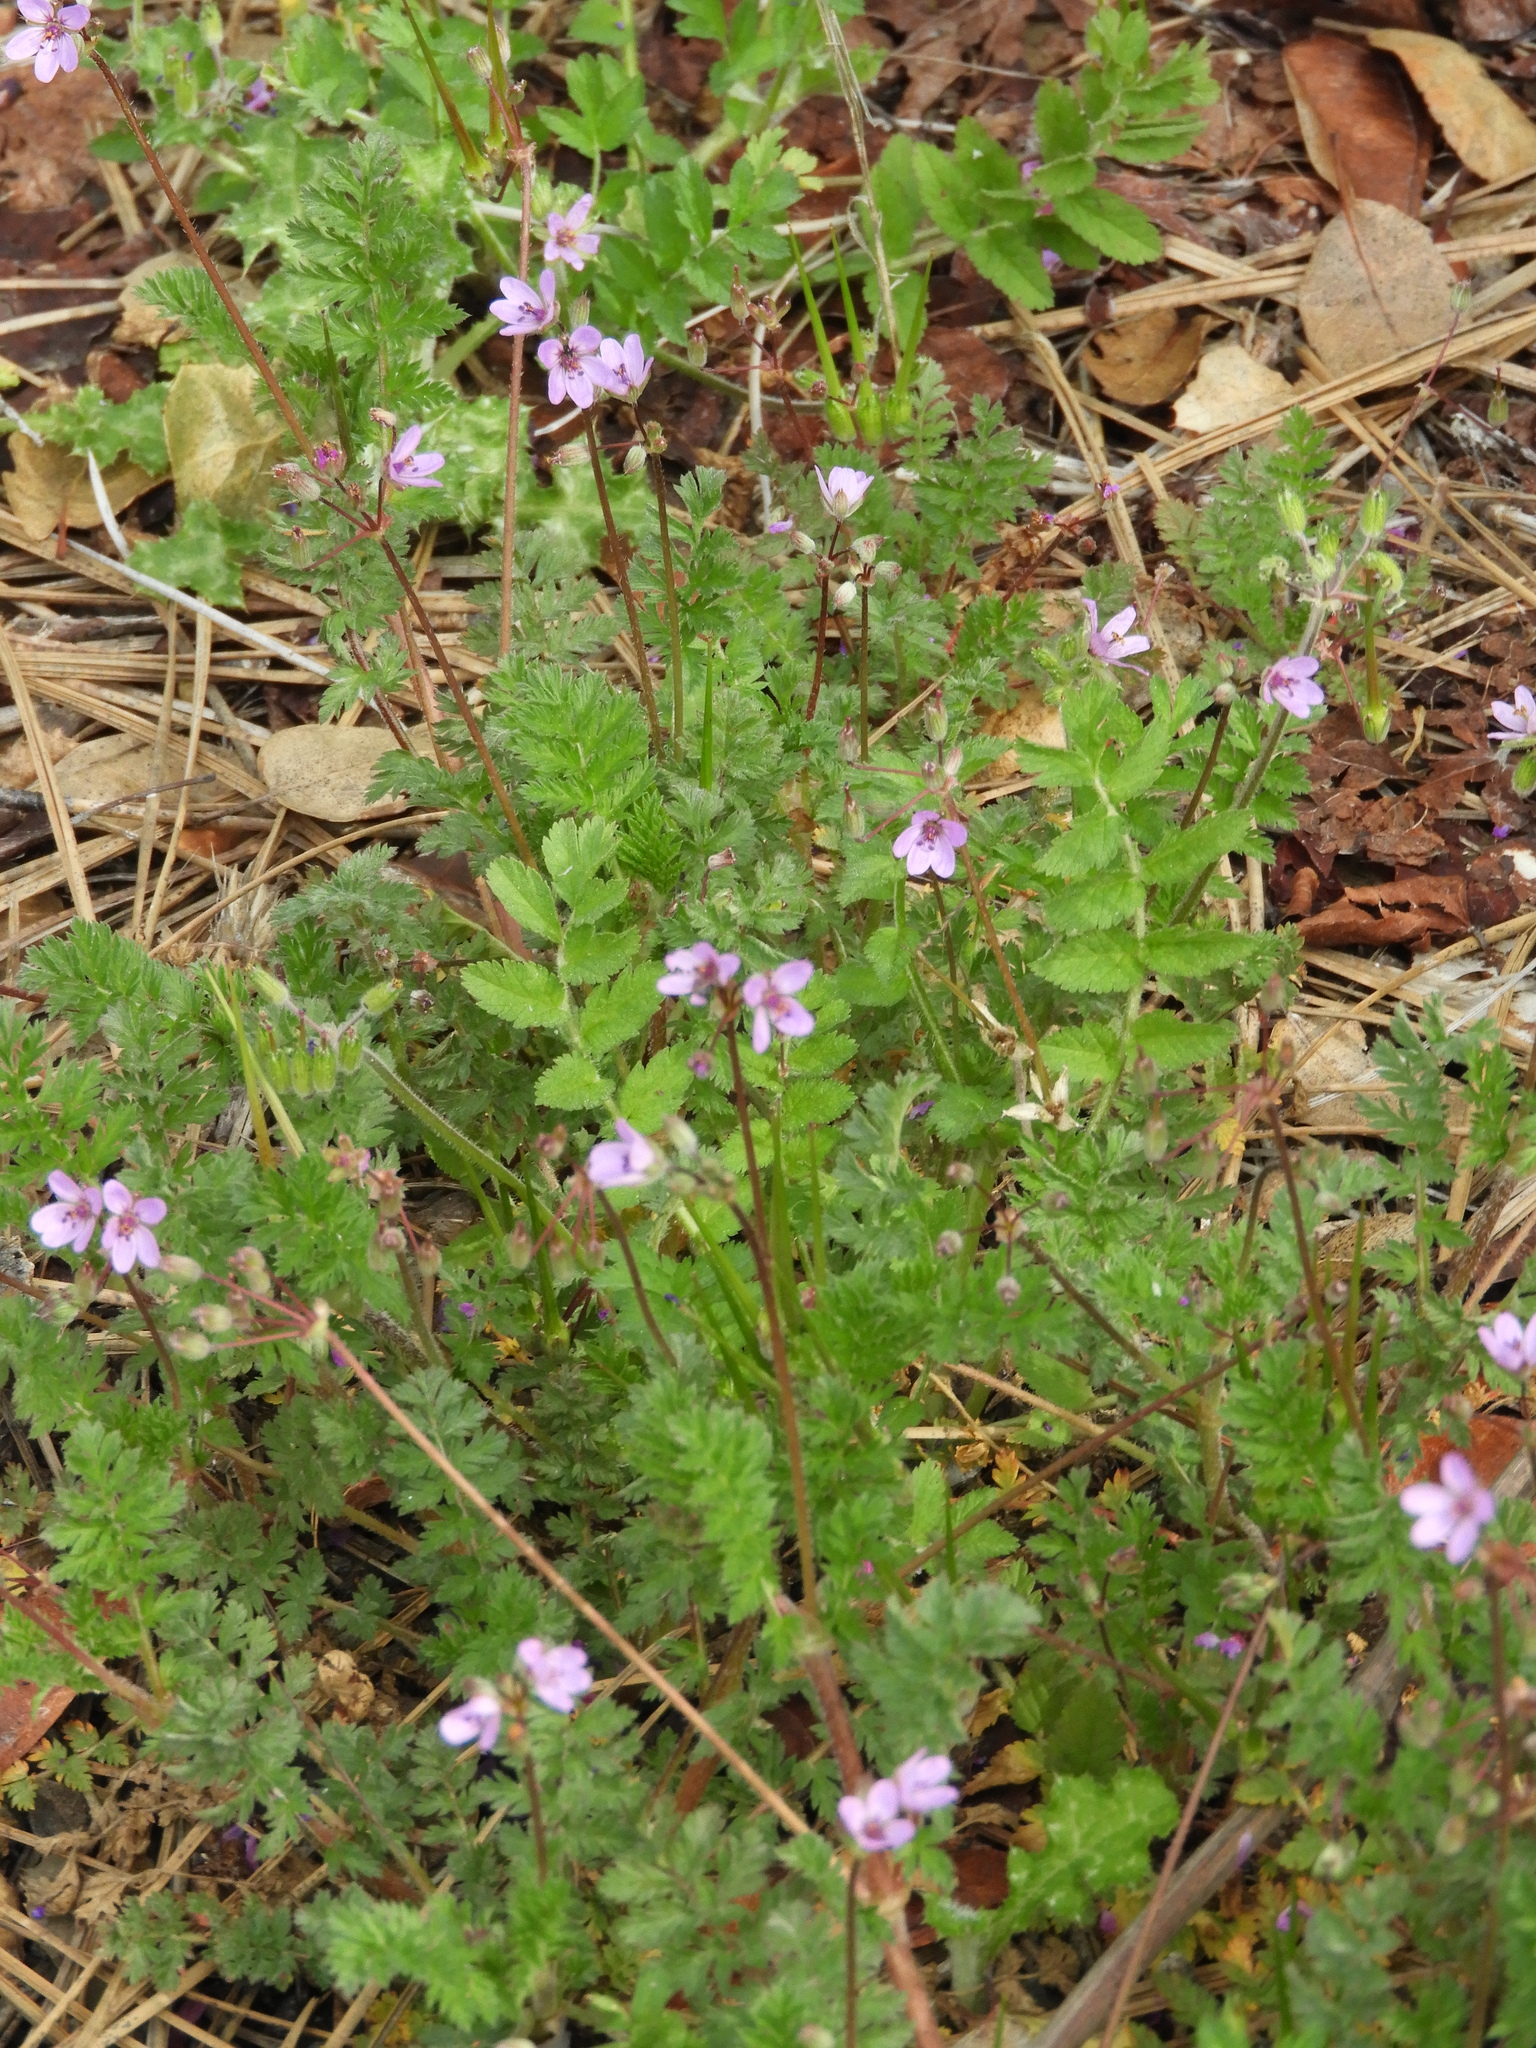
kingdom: Plantae
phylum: Tracheophyta
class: Magnoliopsida
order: Geraniales
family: Geraniaceae
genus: Erodium
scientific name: Erodium cicutarium
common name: Common stork's-bill
